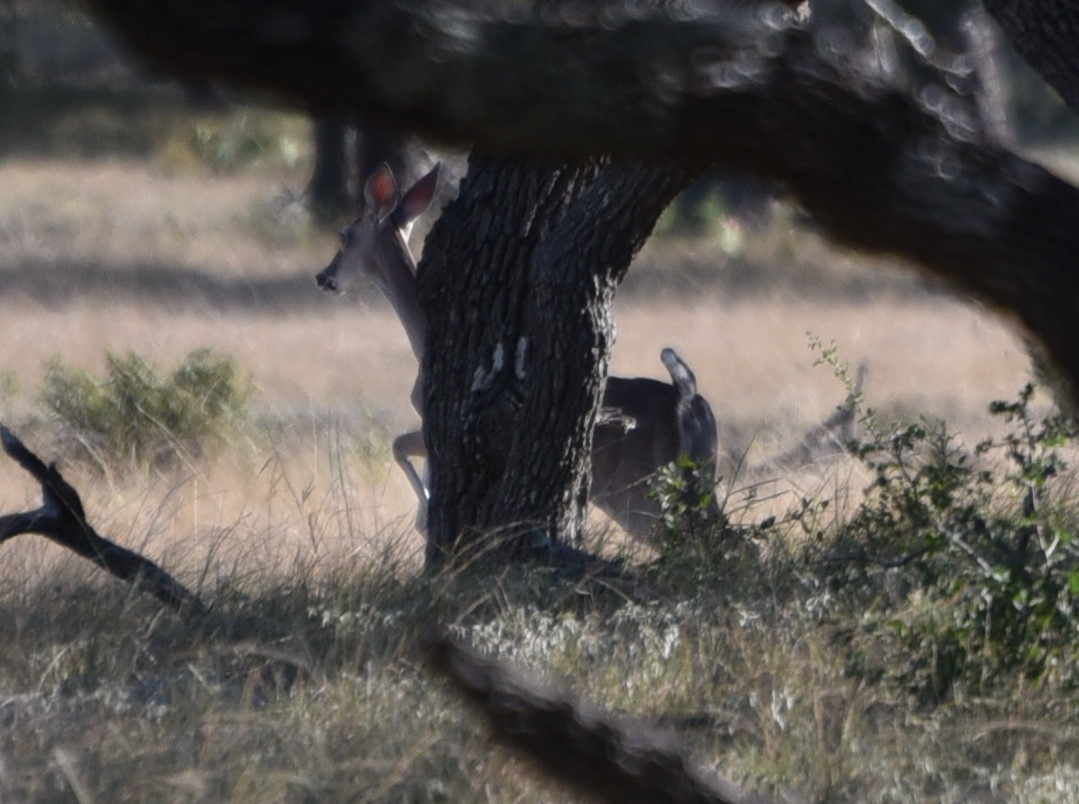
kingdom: Animalia
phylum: Chordata
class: Mammalia
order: Artiodactyla
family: Cervidae
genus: Odocoileus
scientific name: Odocoileus virginianus
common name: White-tailed deer
